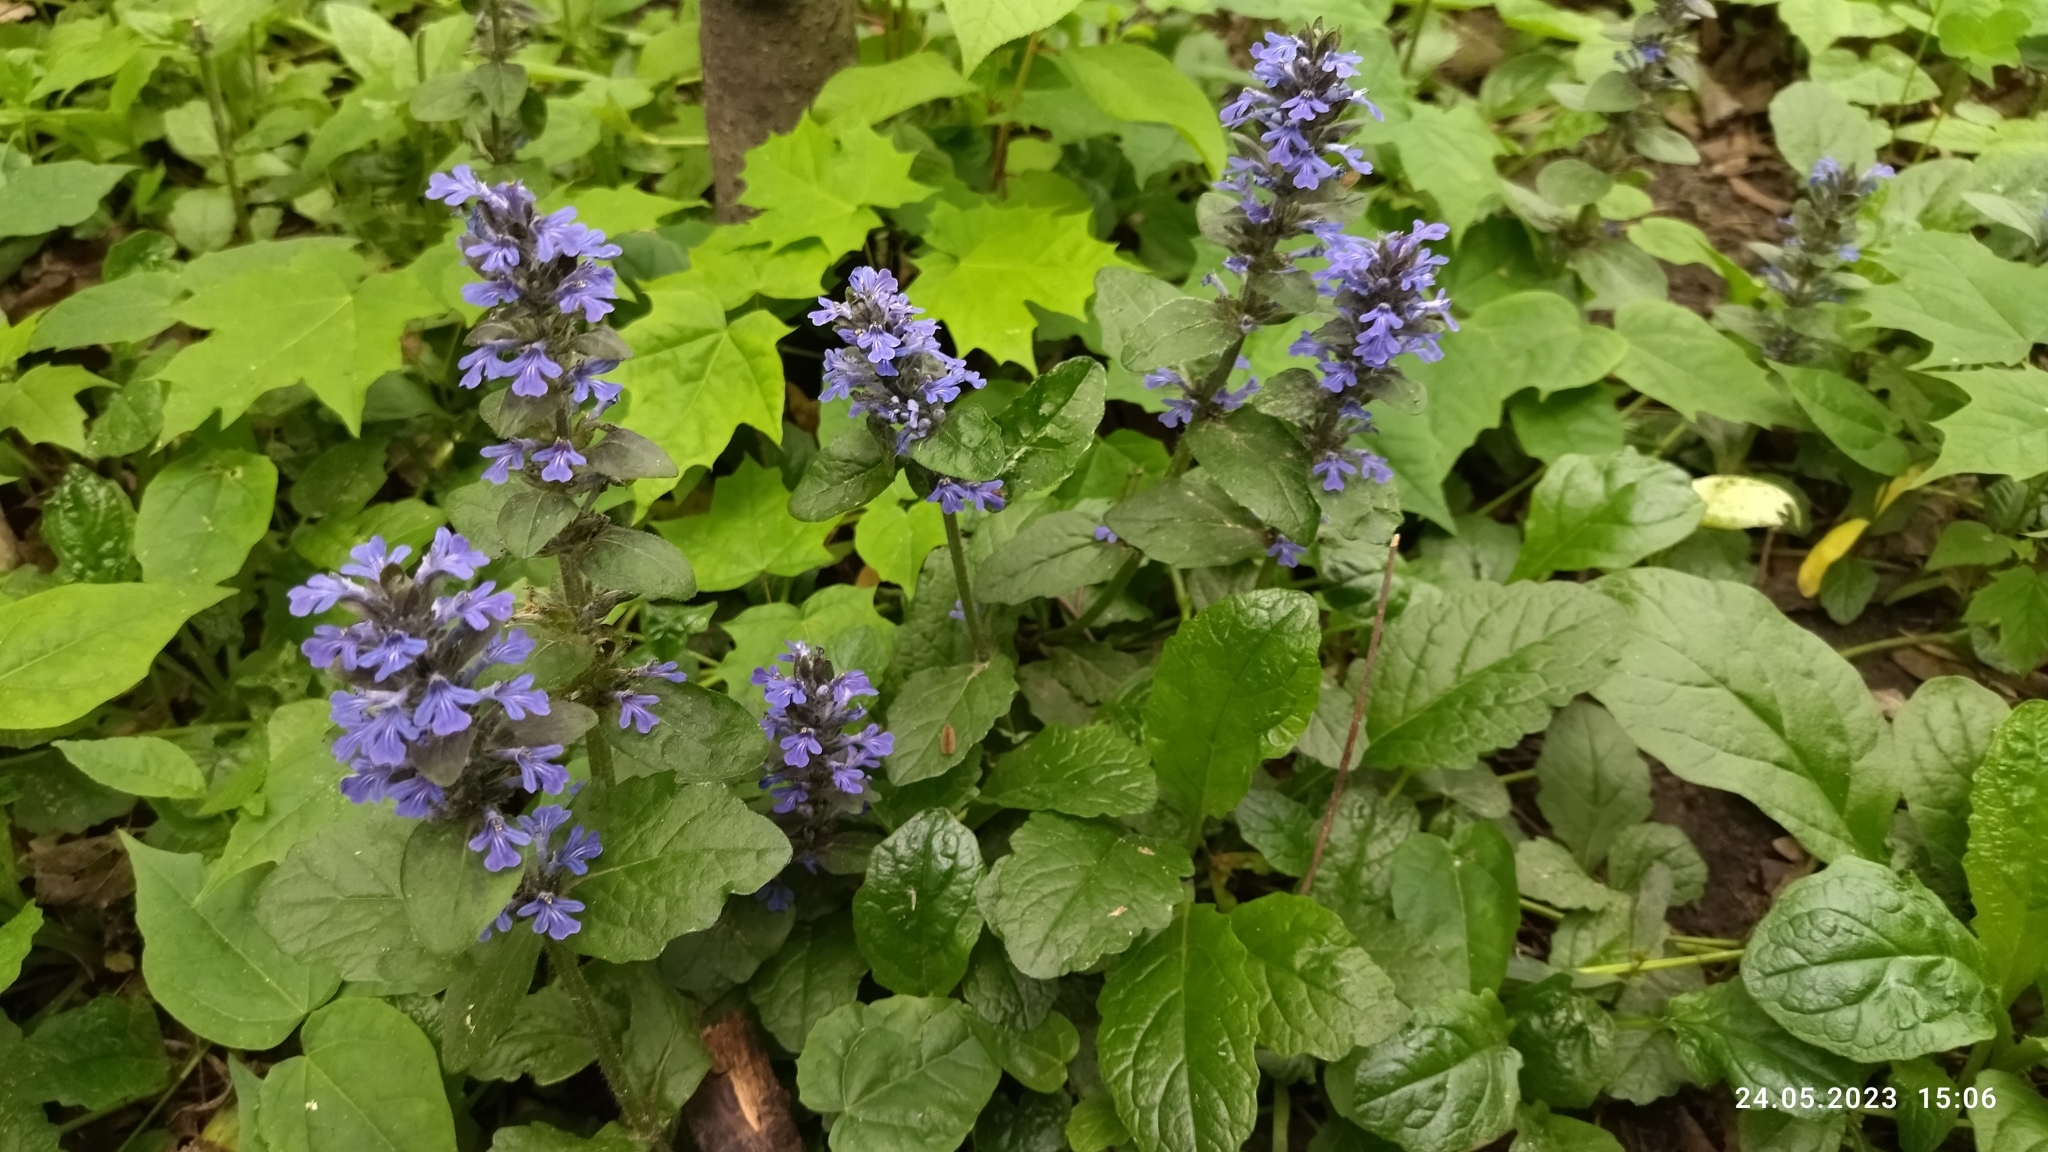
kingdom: Plantae
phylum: Tracheophyta
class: Magnoliopsida
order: Lamiales
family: Lamiaceae
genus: Ajuga
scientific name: Ajuga reptans
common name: Bugle
